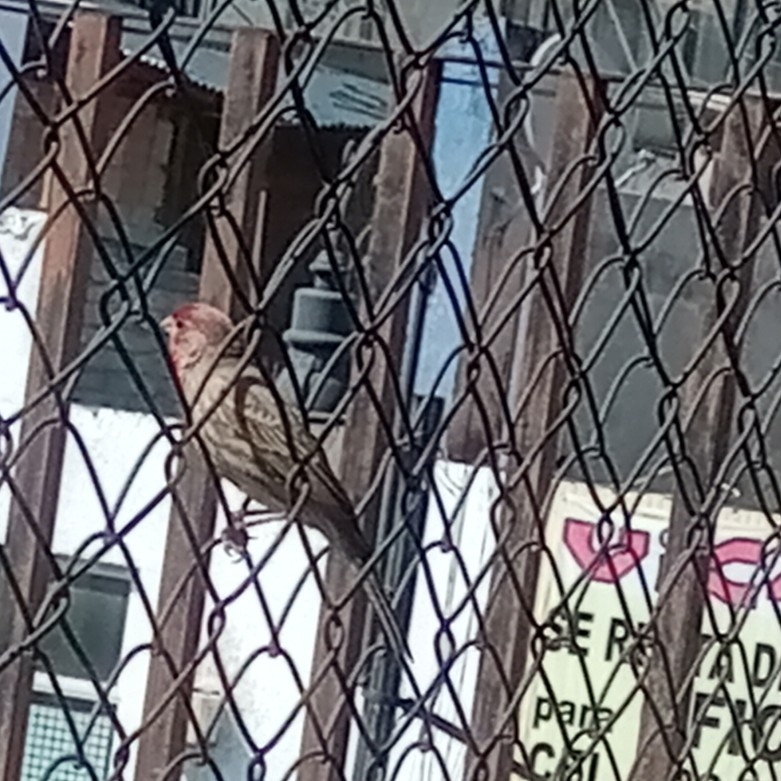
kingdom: Animalia
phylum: Chordata
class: Aves
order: Passeriformes
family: Fringillidae
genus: Haemorhous
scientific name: Haemorhous mexicanus
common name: House finch
